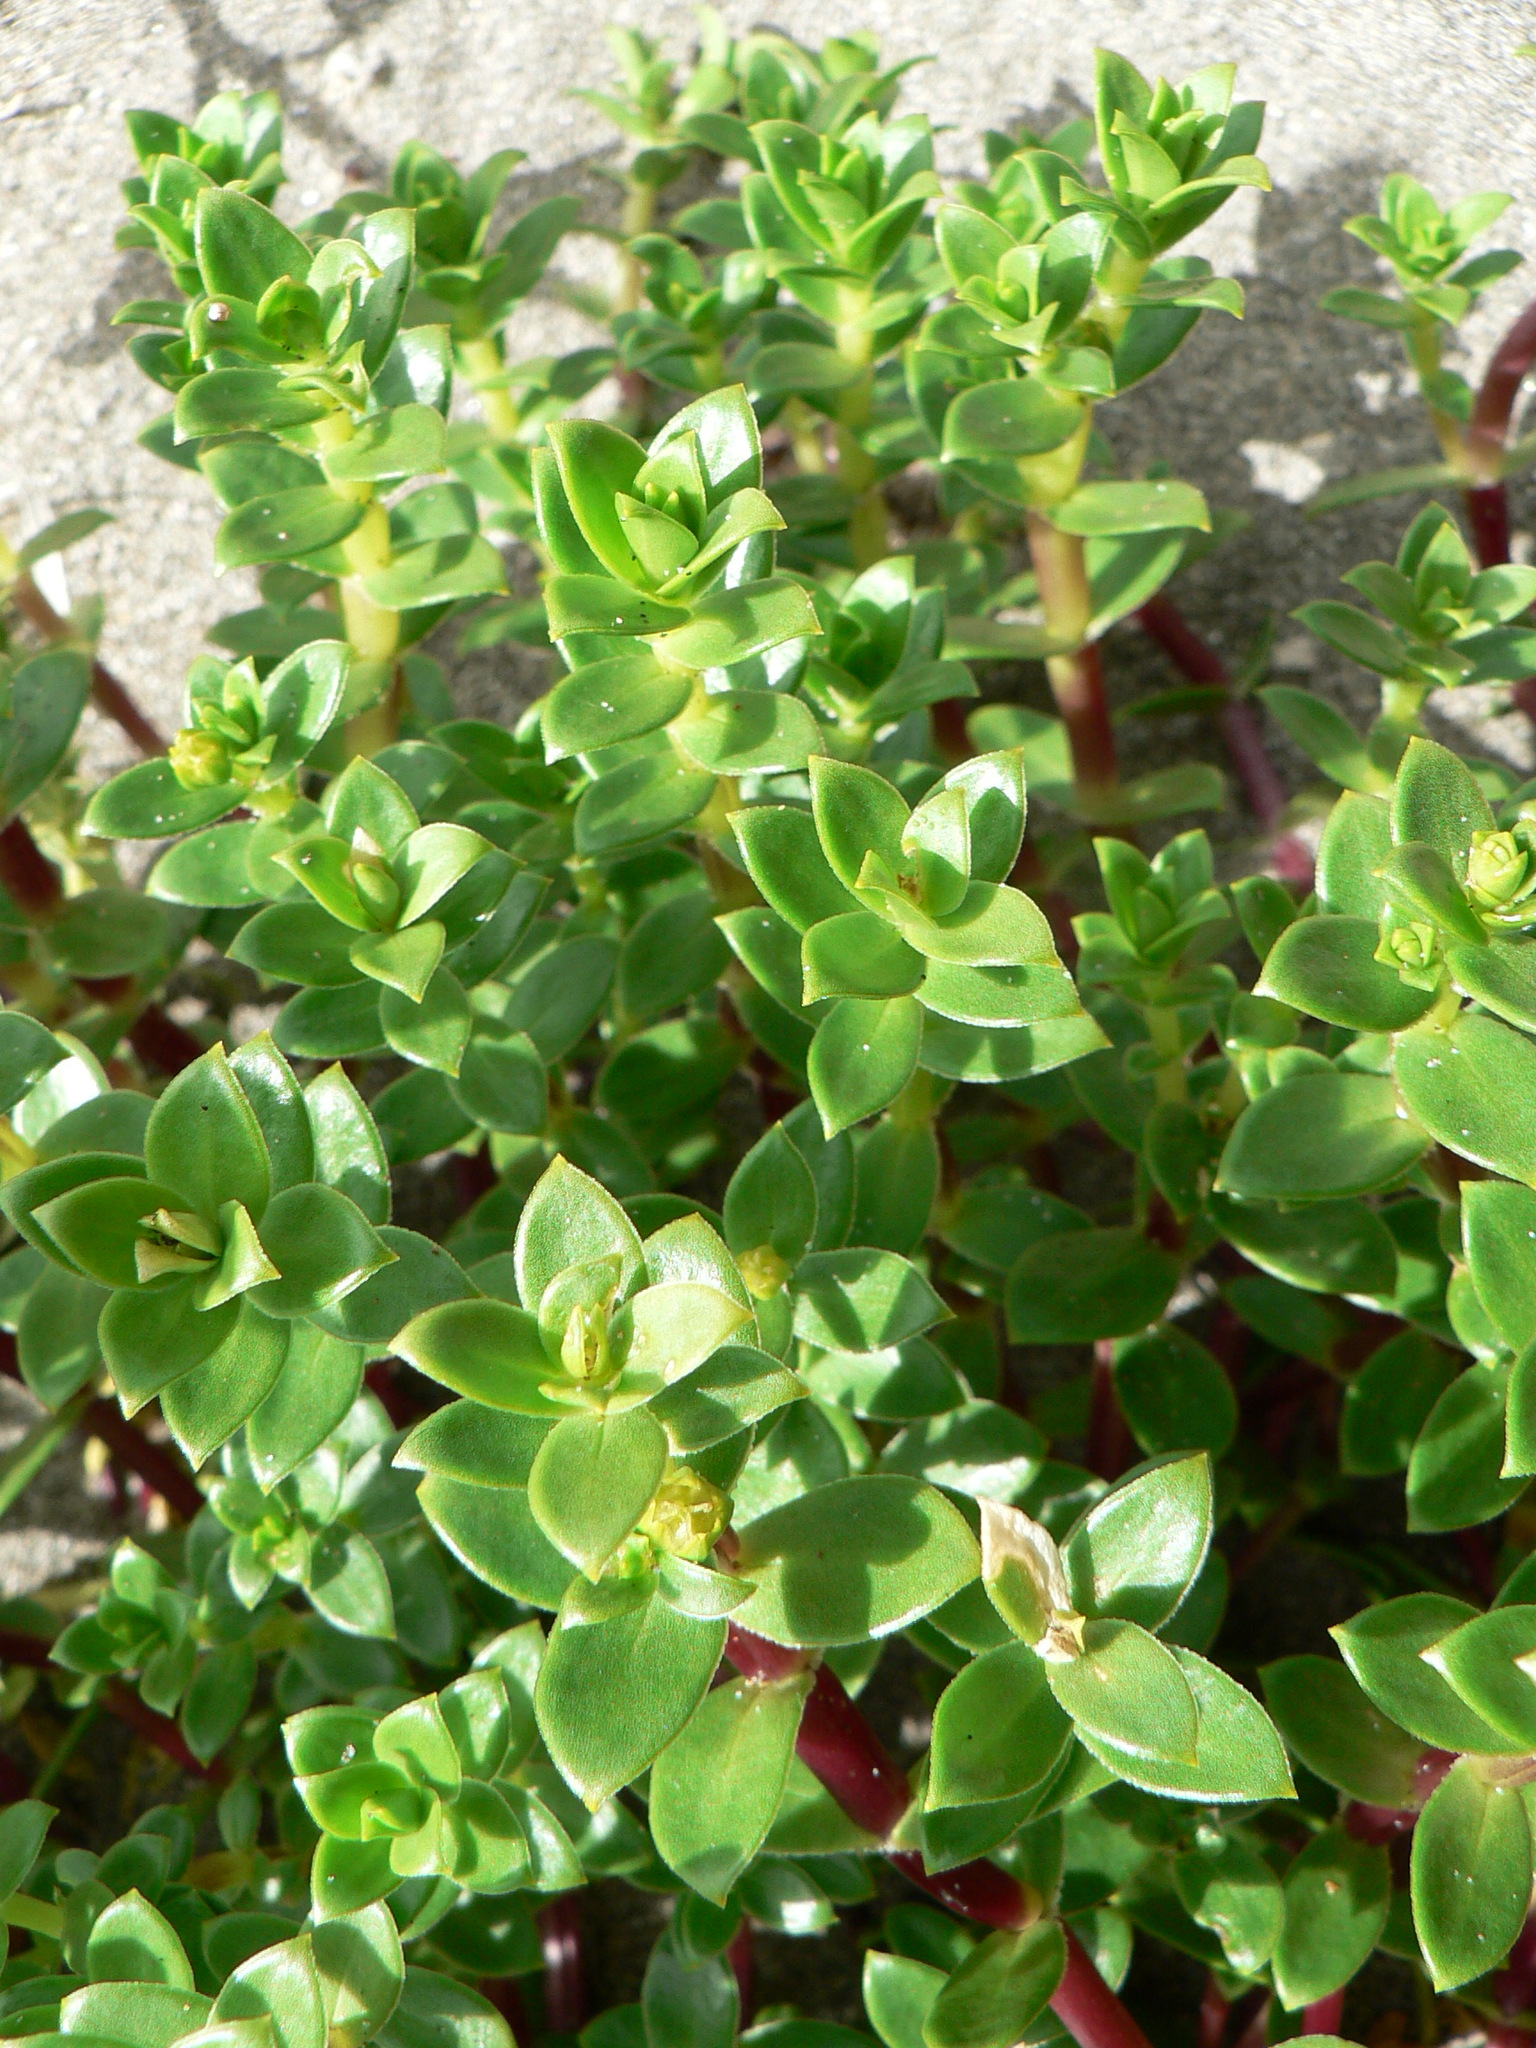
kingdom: Plantae
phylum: Tracheophyta
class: Magnoliopsida
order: Caryophyllales
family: Caryophyllaceae
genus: Honckenya
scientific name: Honckenya peploides
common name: Sea sandwort
